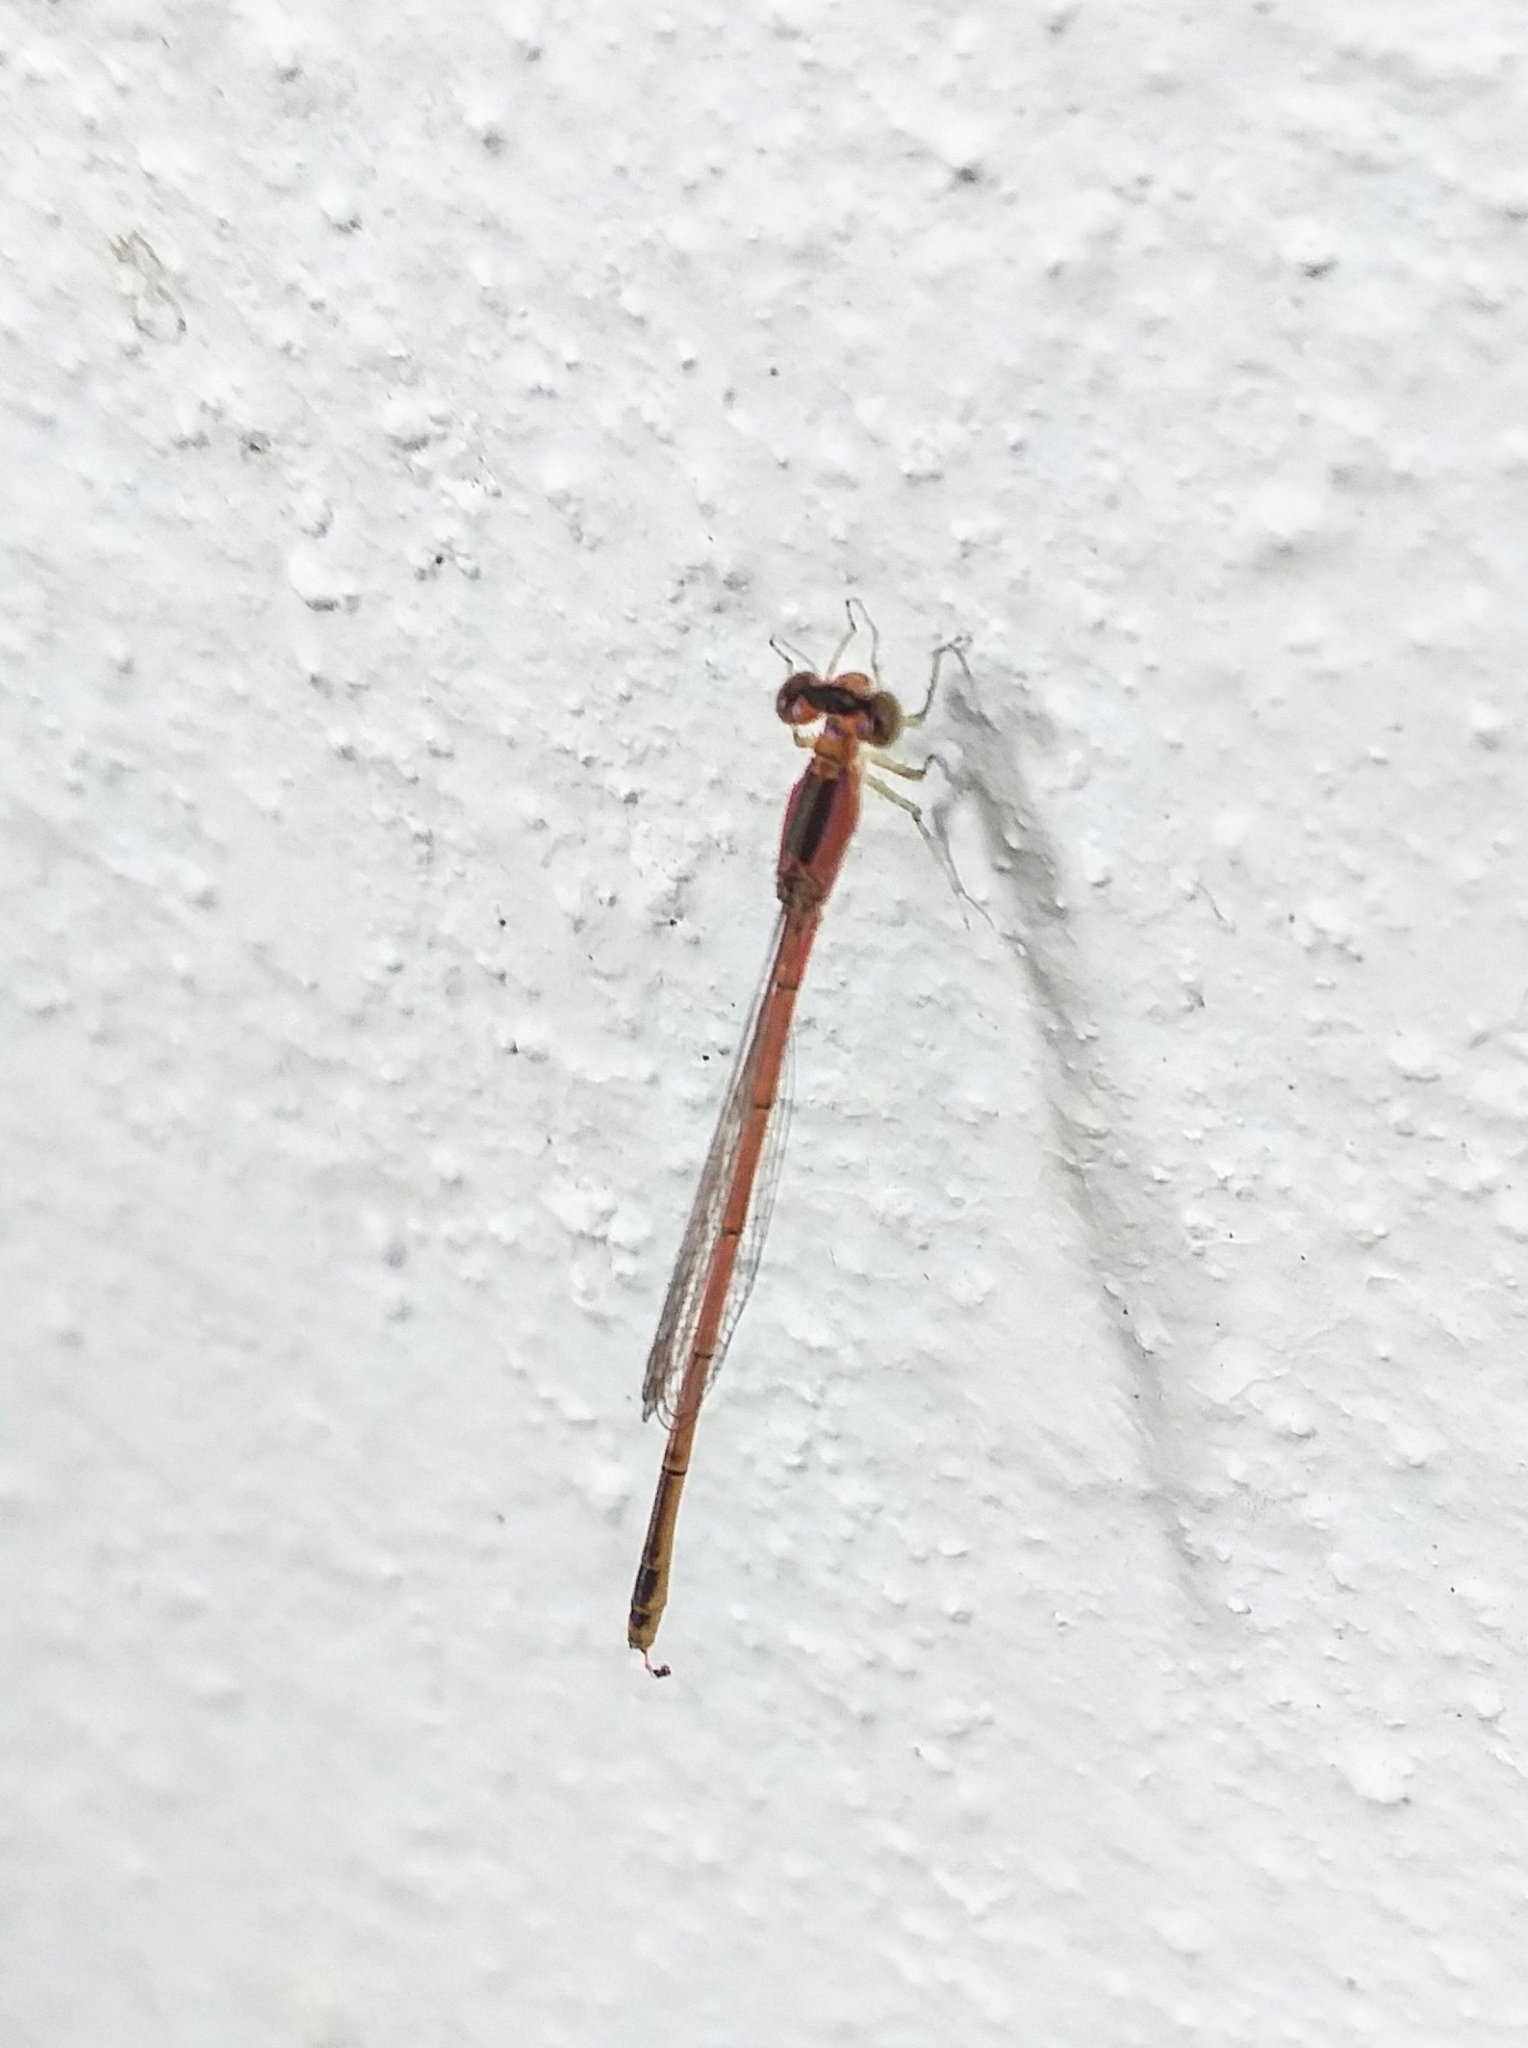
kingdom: Animalia
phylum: Arthropoda
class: Insecta
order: Odonata
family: Coenagrionidae
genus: Agriocnemis
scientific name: Agriocnemis pygmaea
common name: Pygmy wisp
